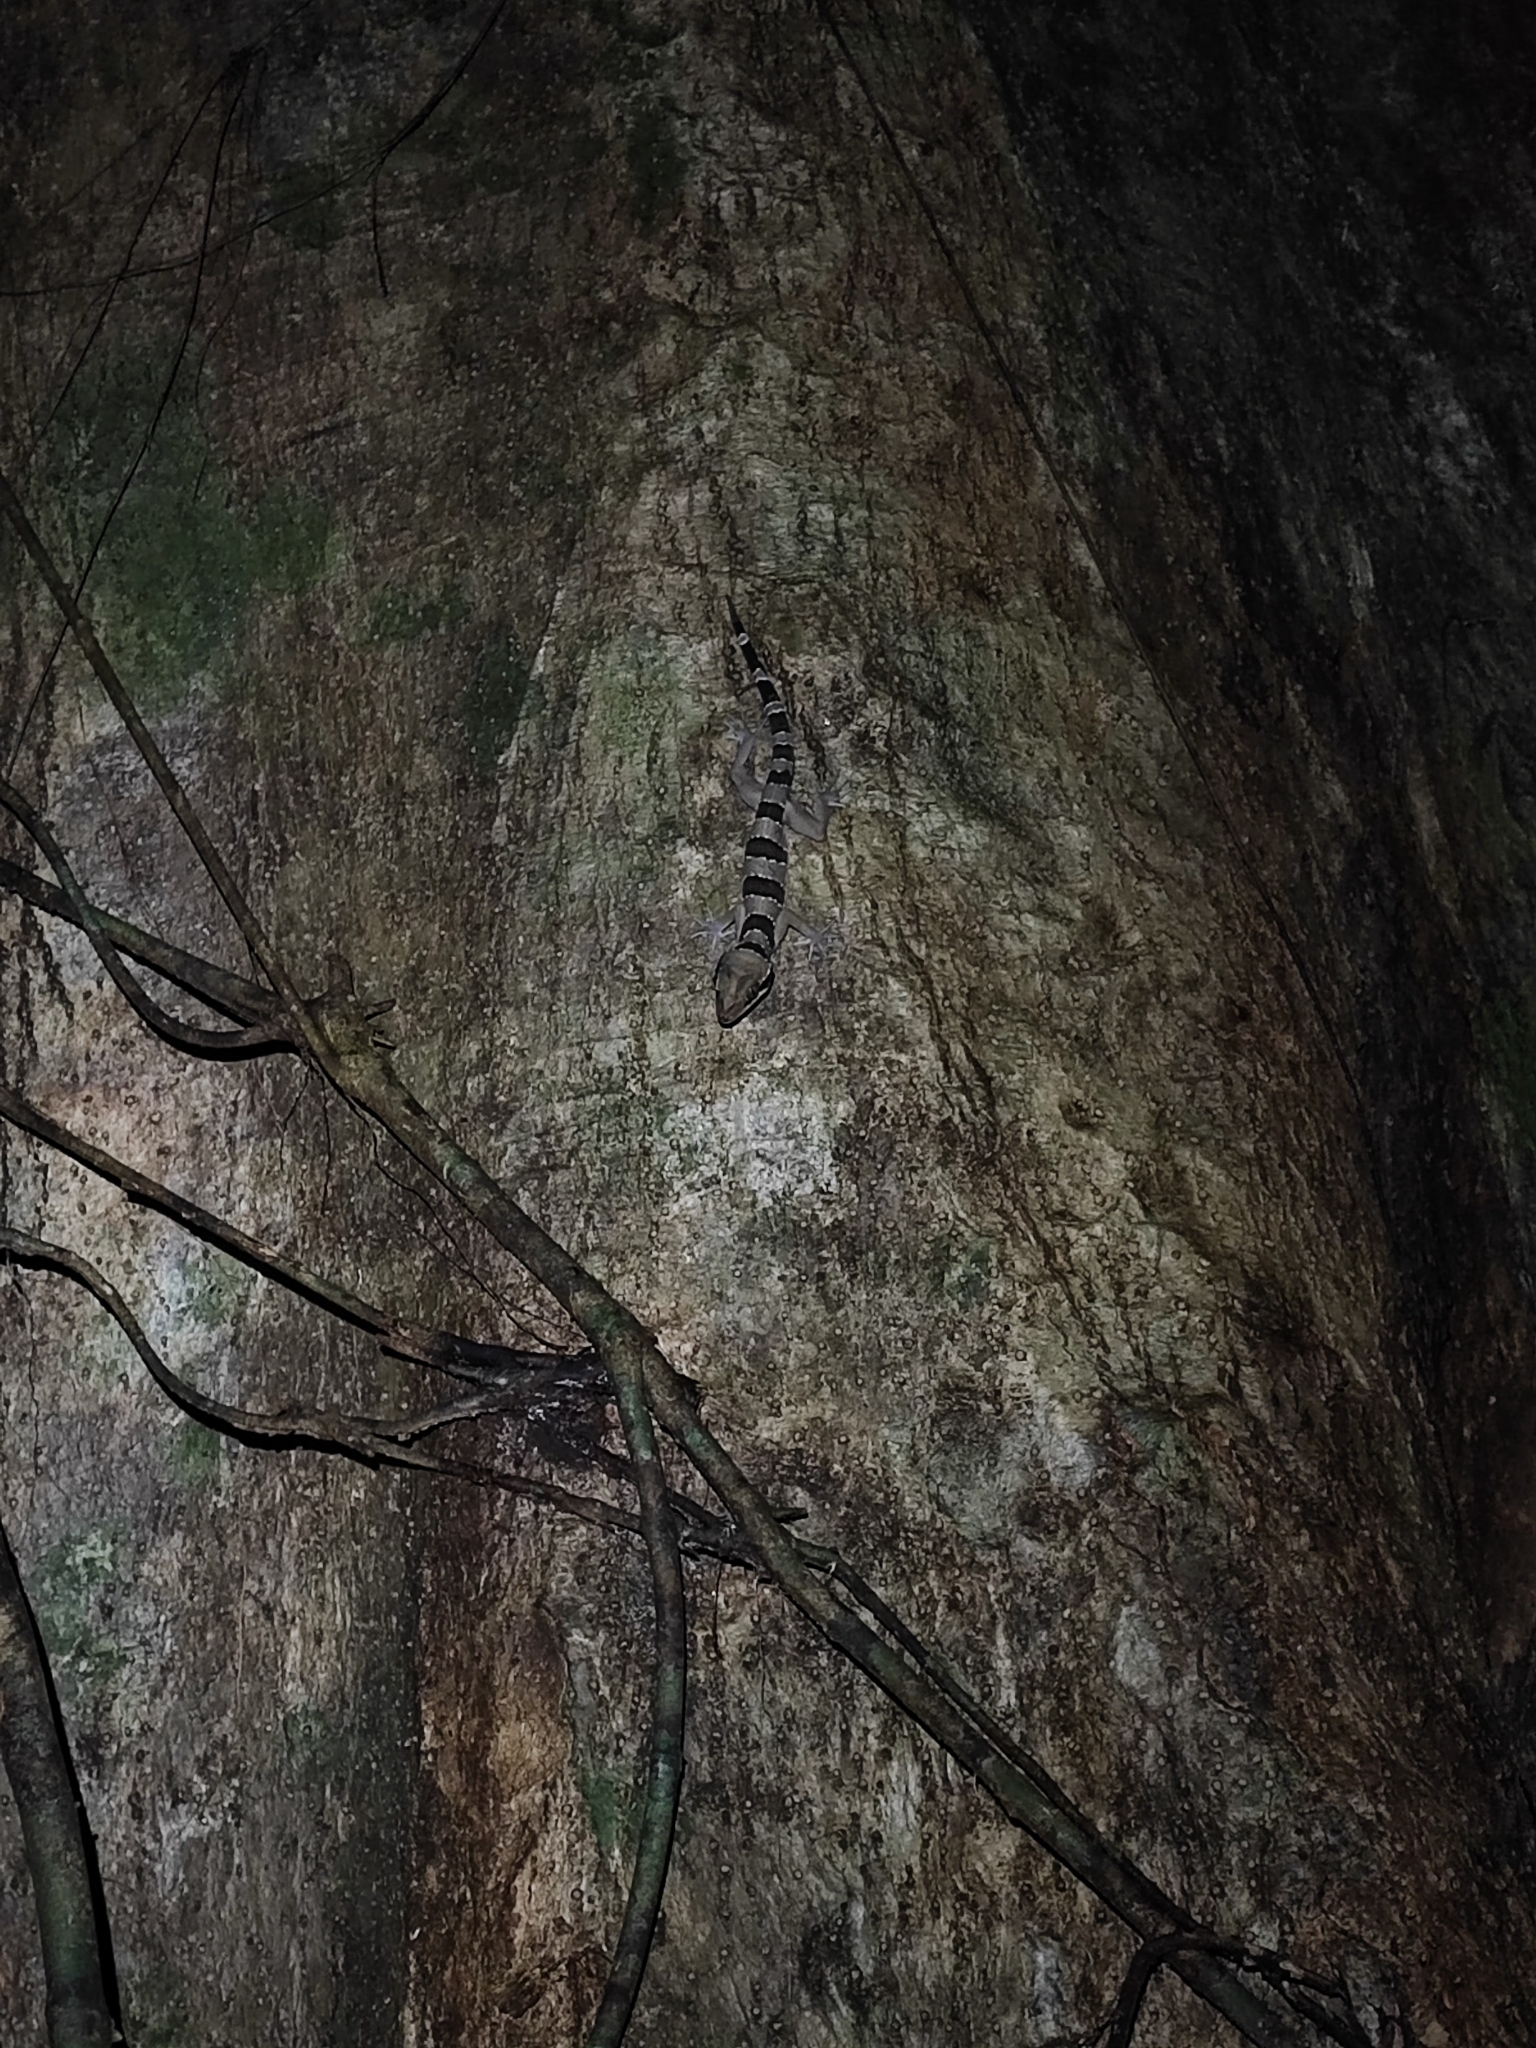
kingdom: Animalia
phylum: Chordata
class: Squamata
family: Gekkonidae
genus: Cyrtodactylus
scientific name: Cyrtodactylus lekaguli
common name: Tuk-kai boonsong bent-toed gecko
